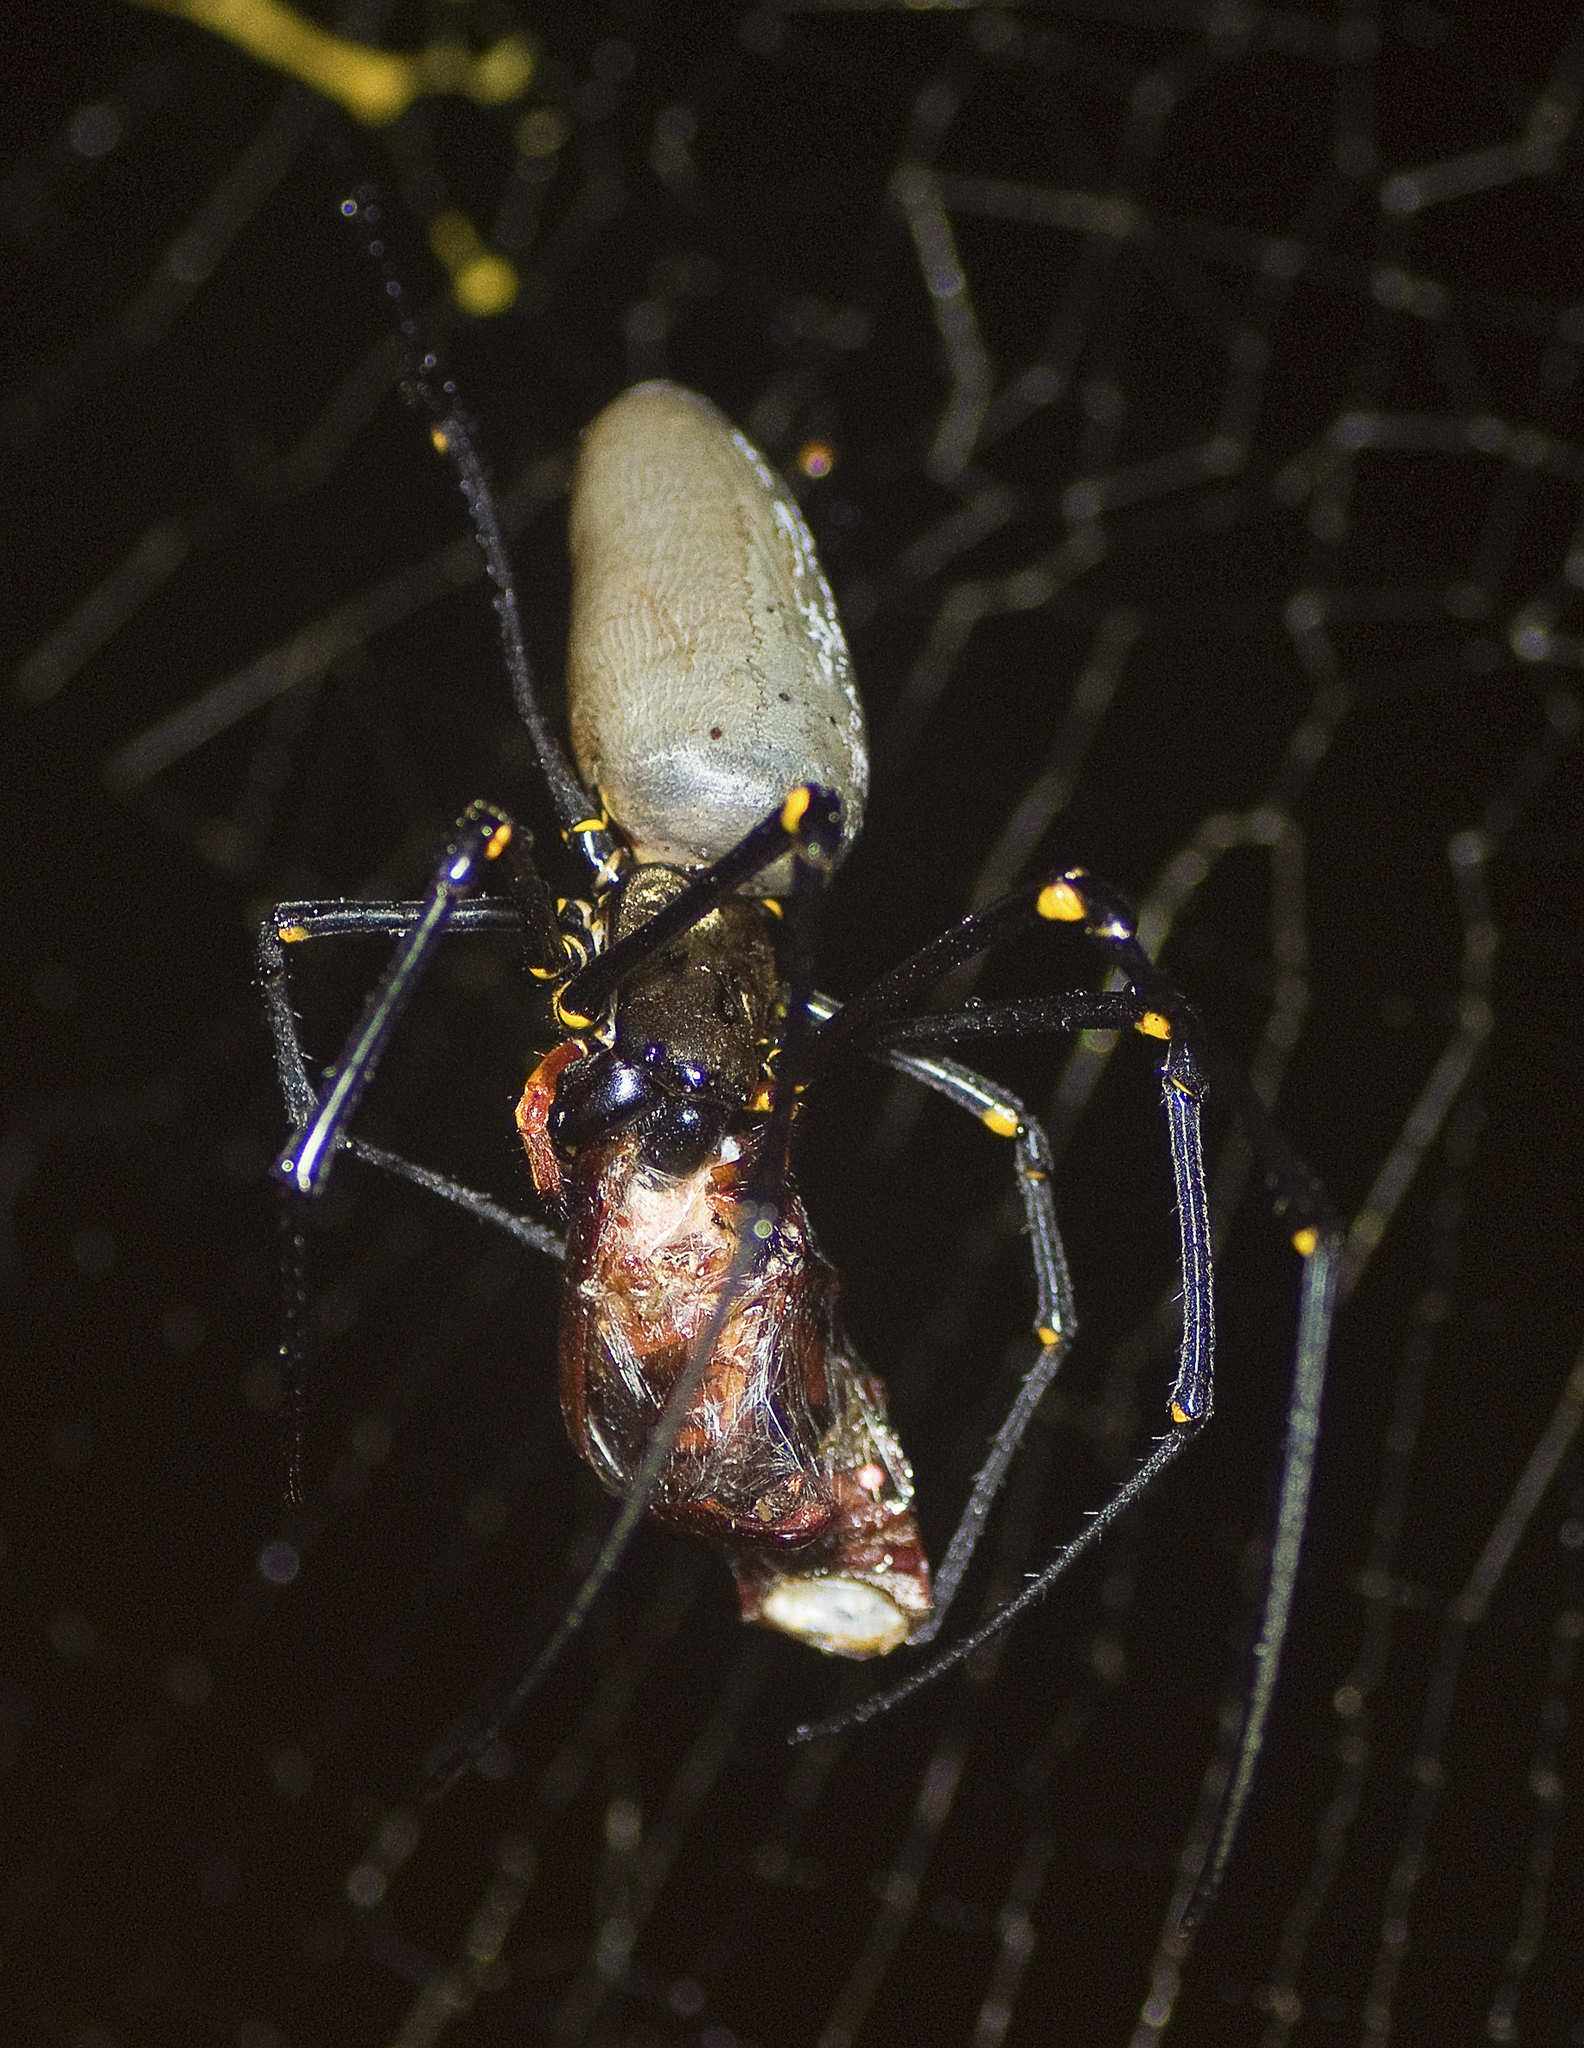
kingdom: Animalia
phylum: Arthropoda
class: Arachnida
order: Araneae
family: Araneidae
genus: Nephila
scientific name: Nephila pilipes
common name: Giant golden orb weaver
